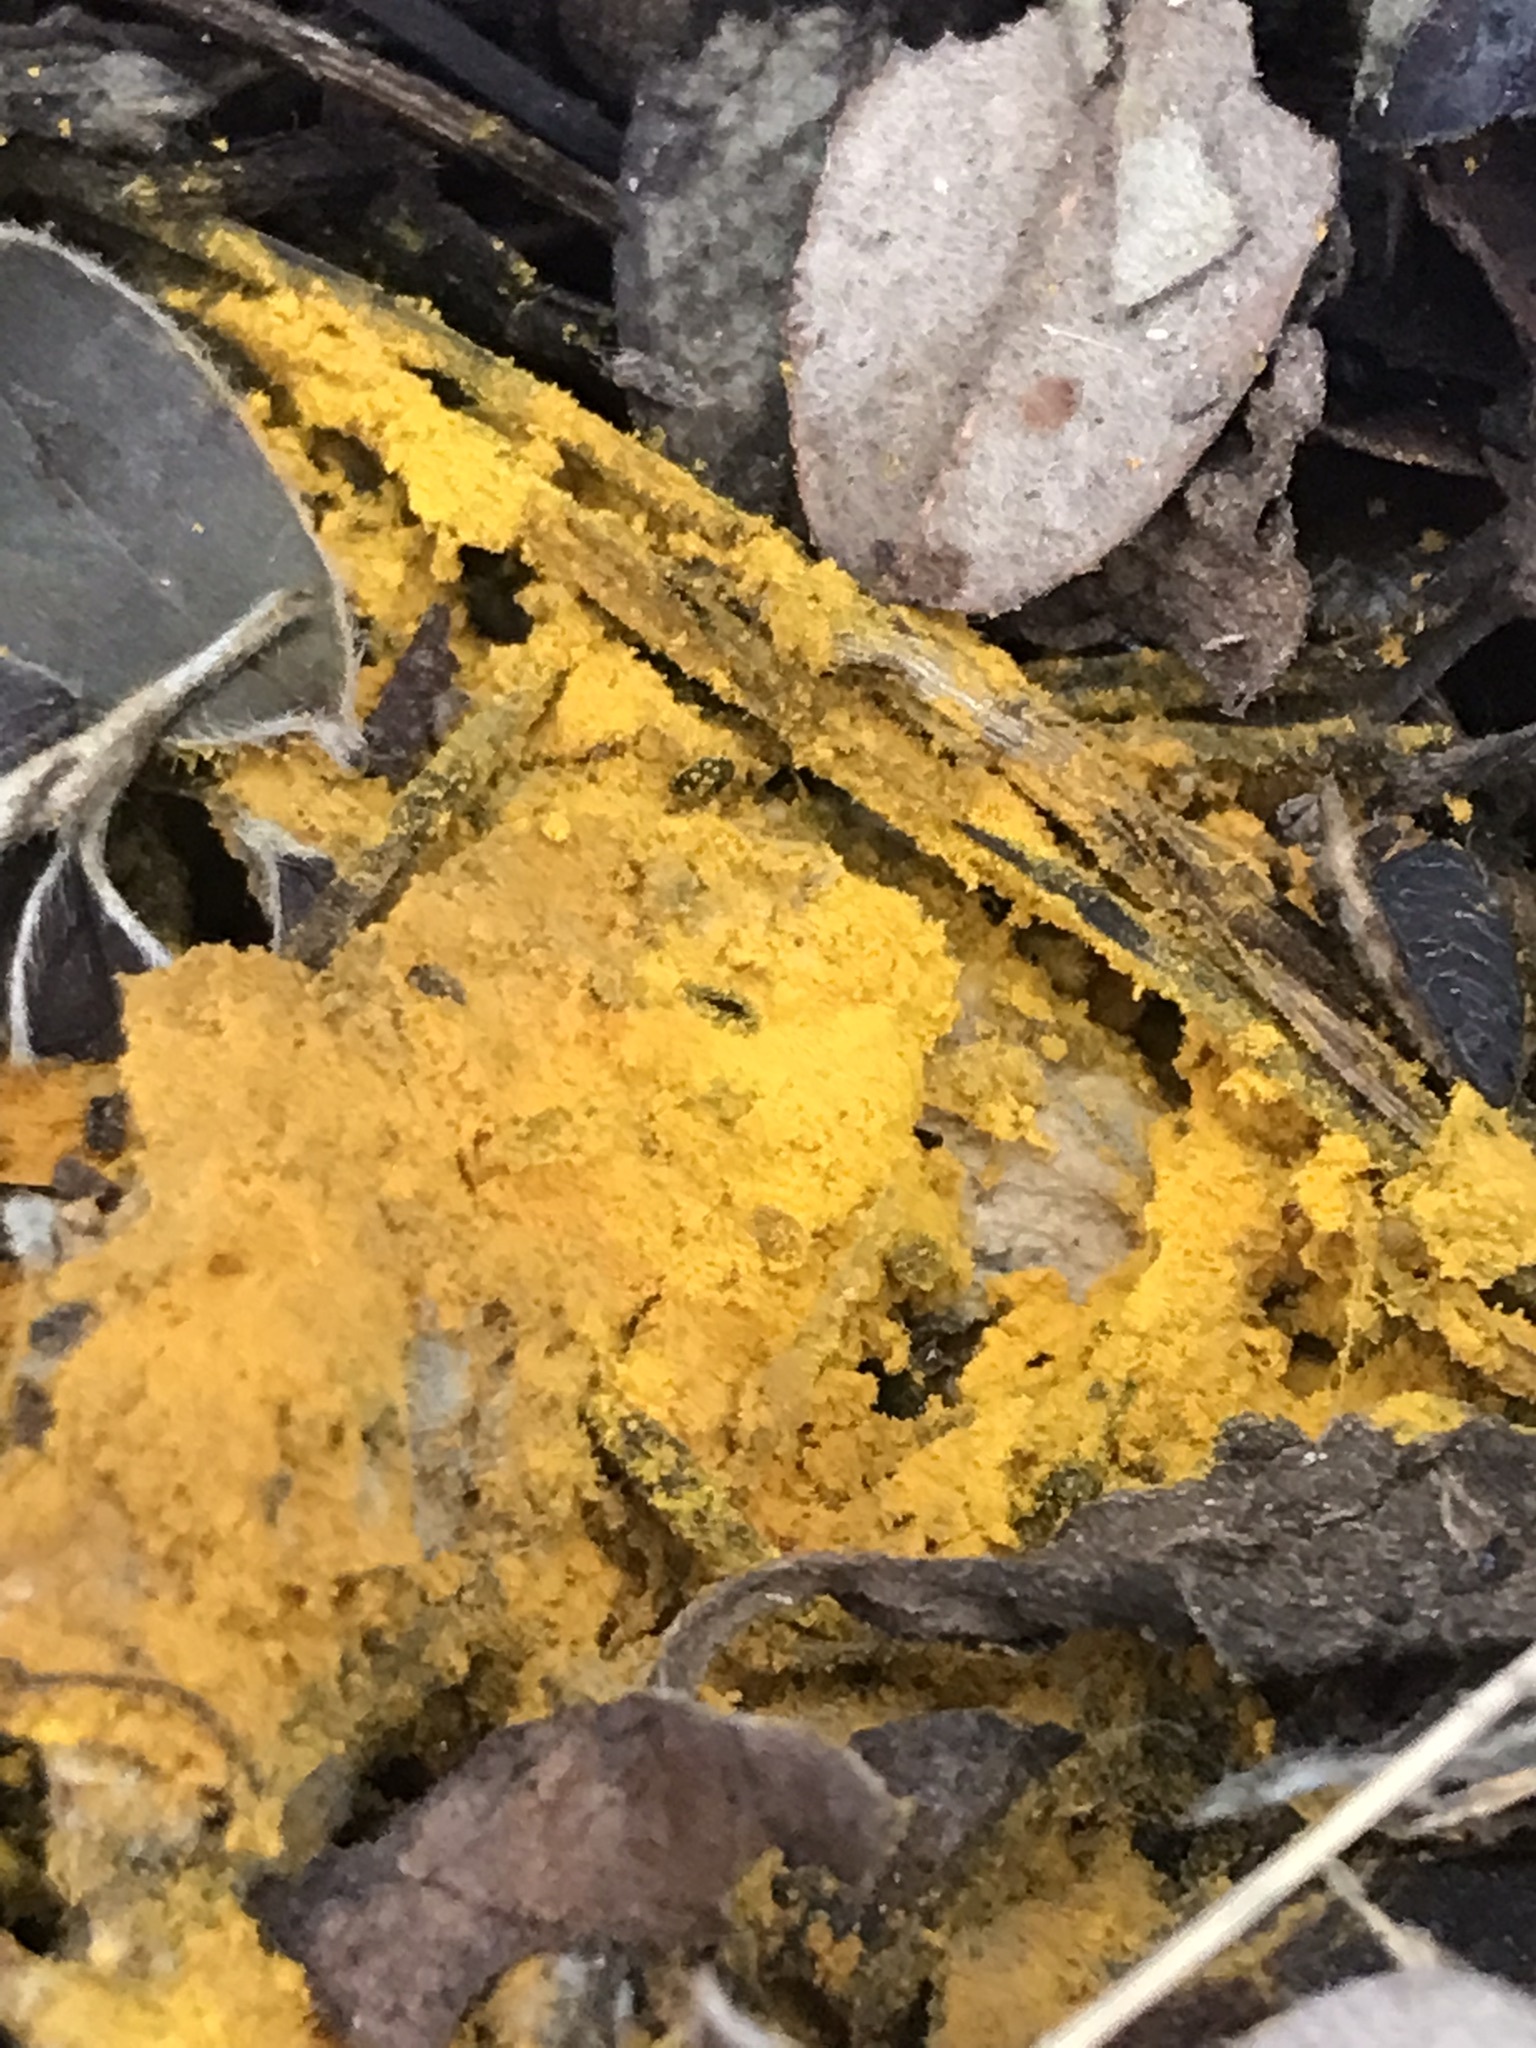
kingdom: Protozoa
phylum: Mycetozoa
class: Myxomycetes
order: Physarales
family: Physaraceae
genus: Fuligo
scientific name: Fuligo septica
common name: Dog vomit slime mold
